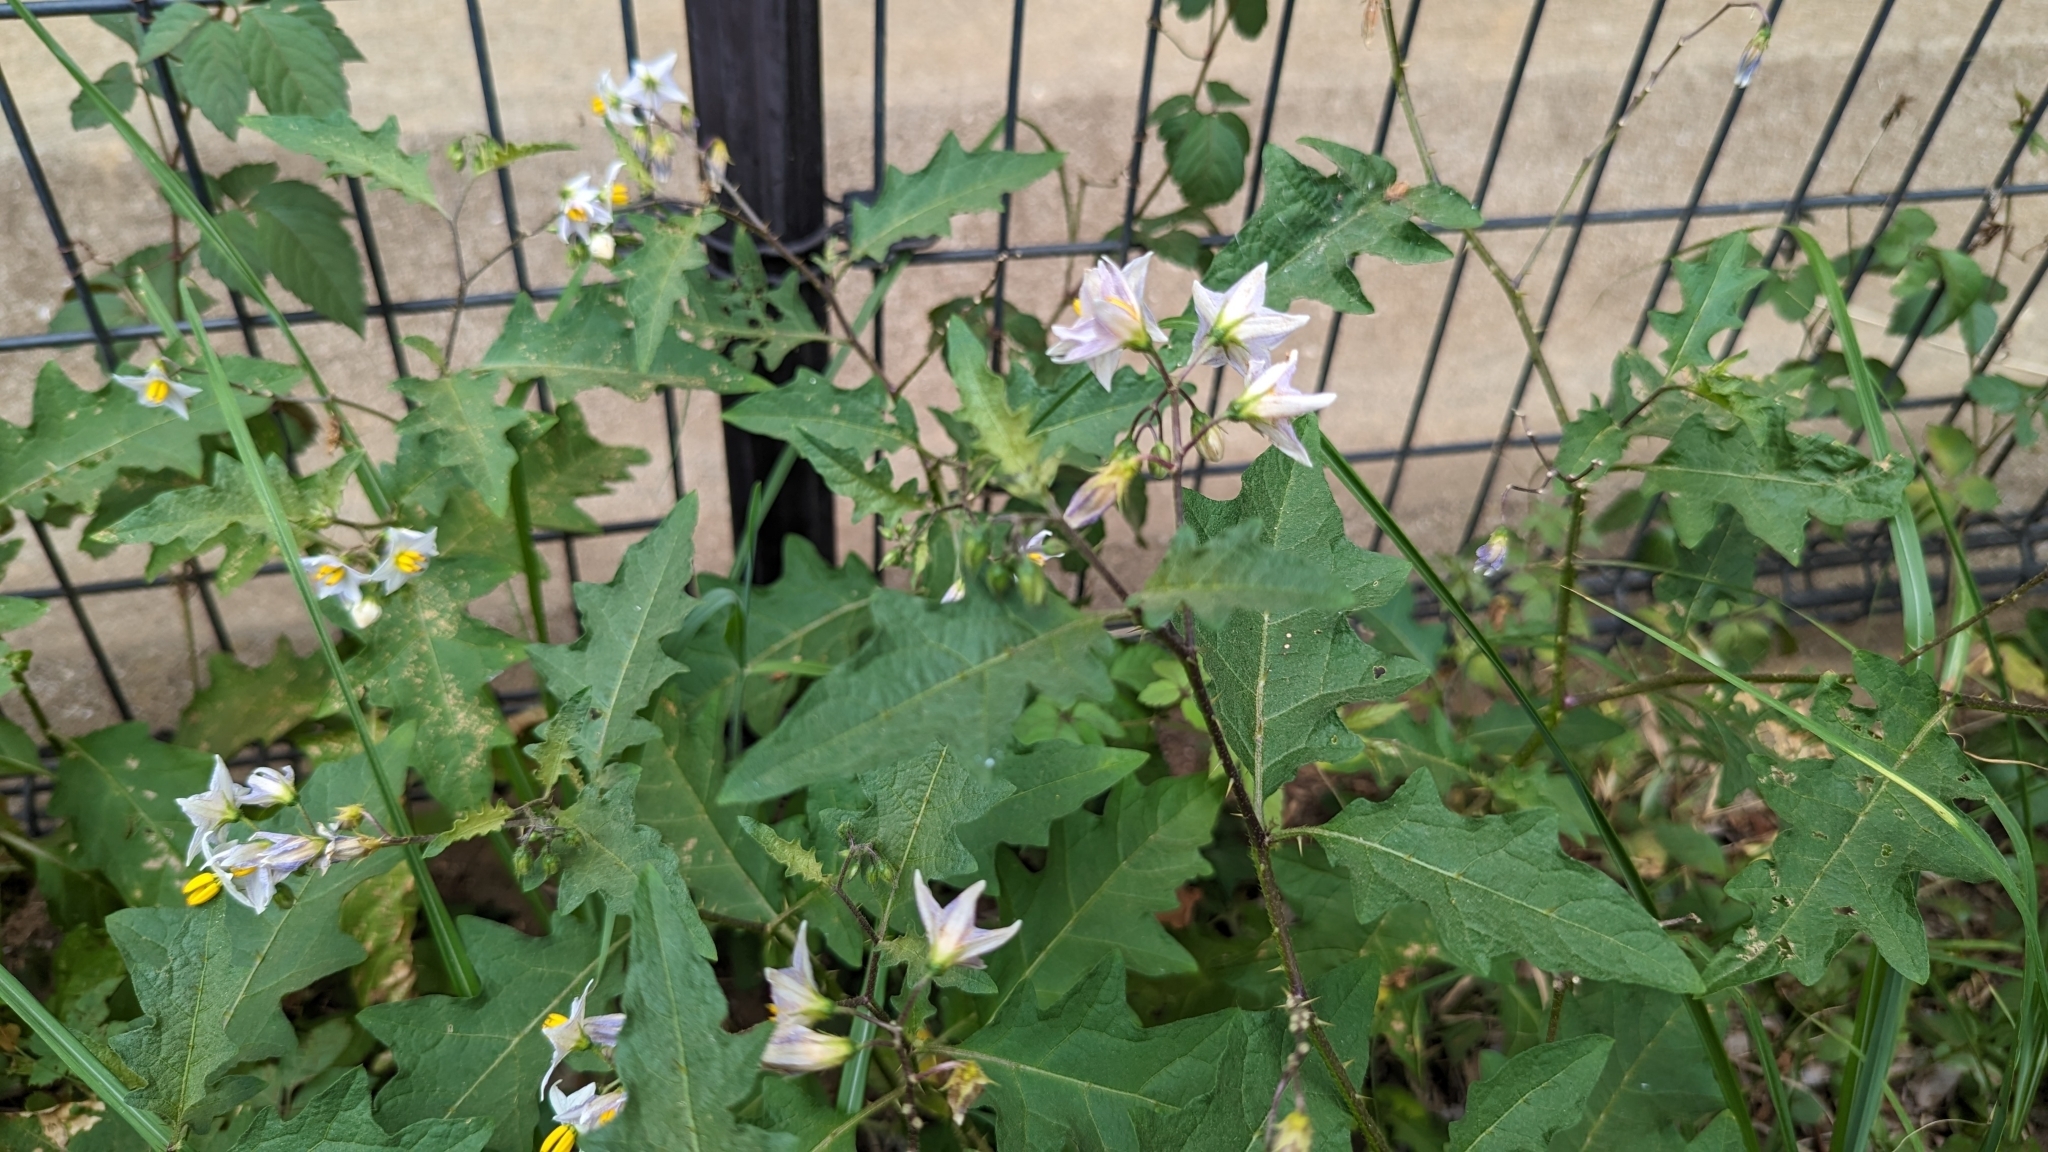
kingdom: Plantae
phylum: Tracheophyta
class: Magnoliopsida
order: Solanales
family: Solanaceae
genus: Solanum
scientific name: Solanum carolinense
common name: Horse-nettle
